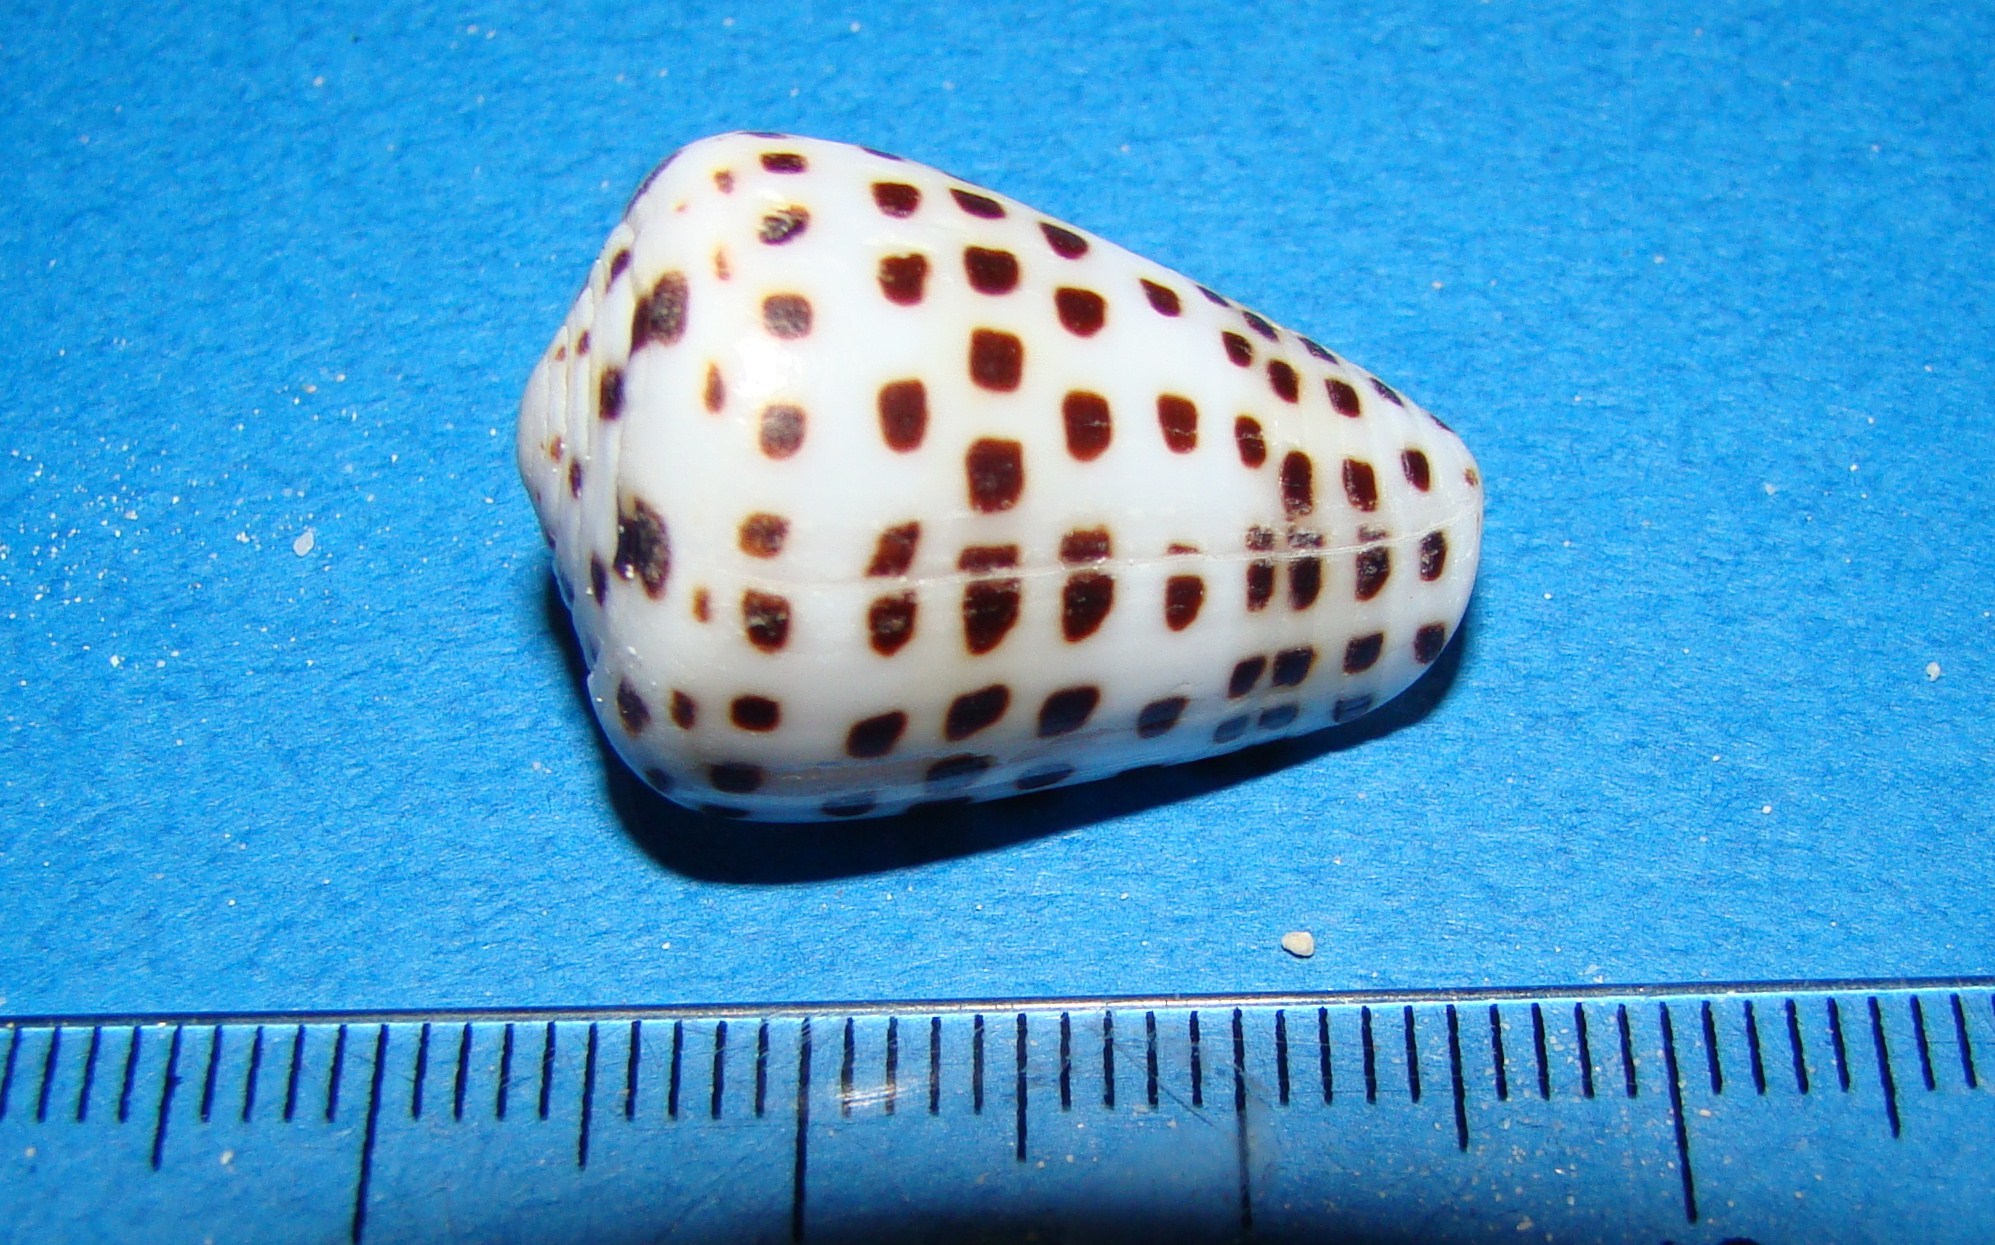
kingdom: Animalia
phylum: Mollusca
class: Gastropoda
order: Neogastropoda
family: Conidae
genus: Conus
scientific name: Conus eburneus
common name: Ivory cone
